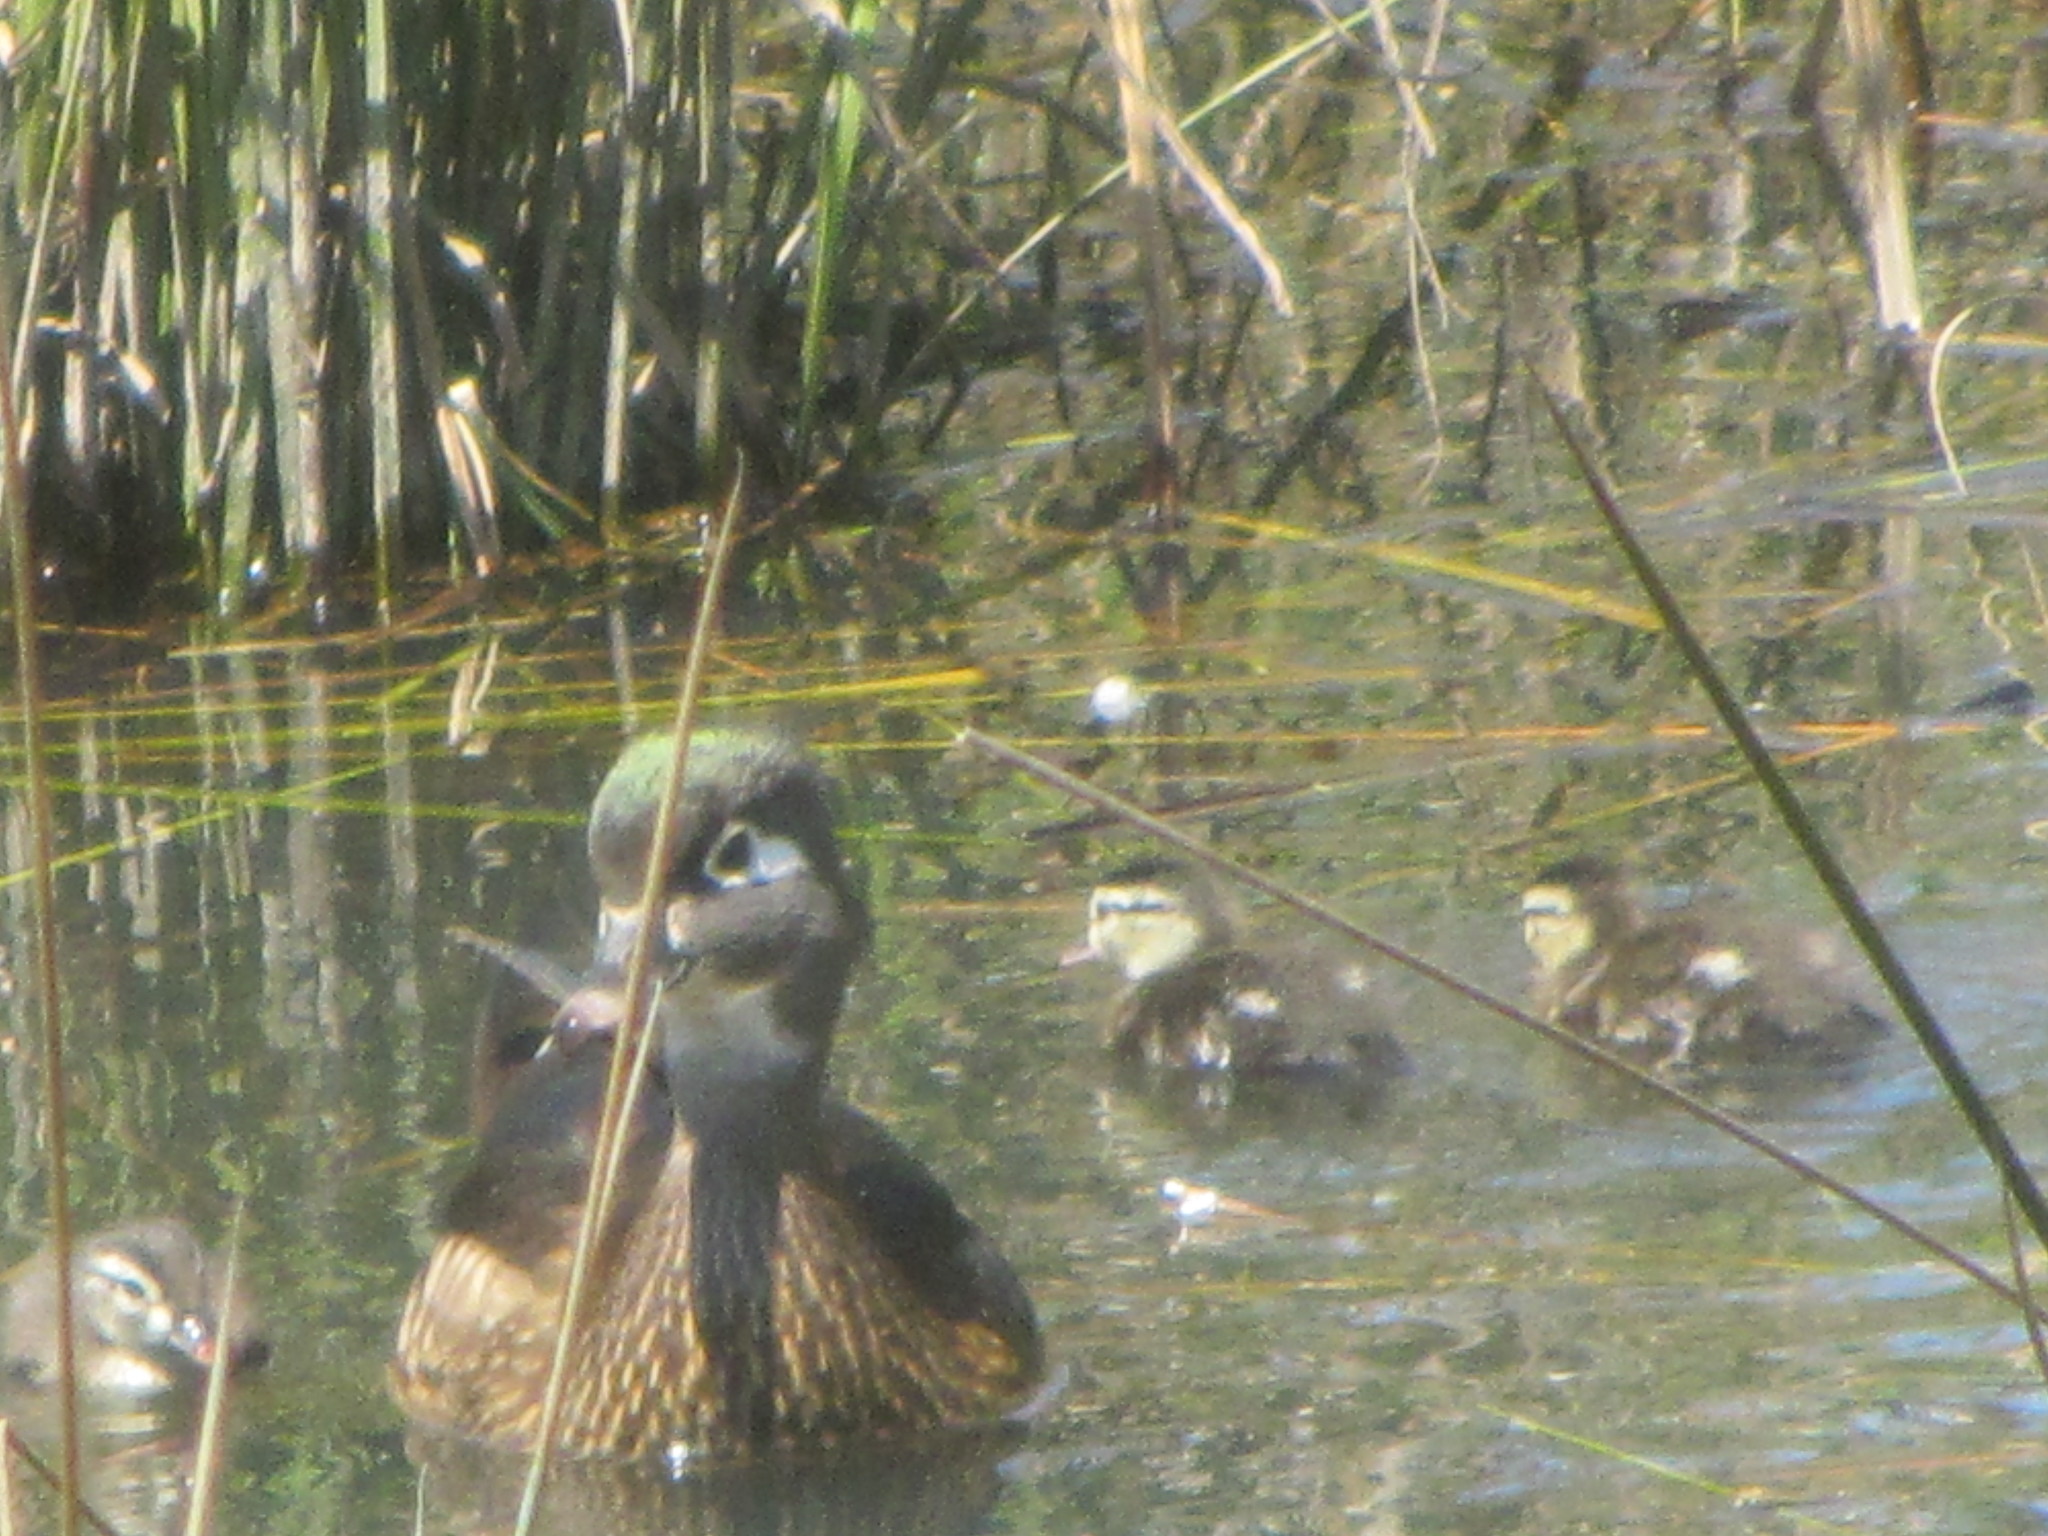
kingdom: Animalia
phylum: Chordata
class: Aves
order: Anseriformes
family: Anatidae
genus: Aix
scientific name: Aix sponsa
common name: Wood duck
